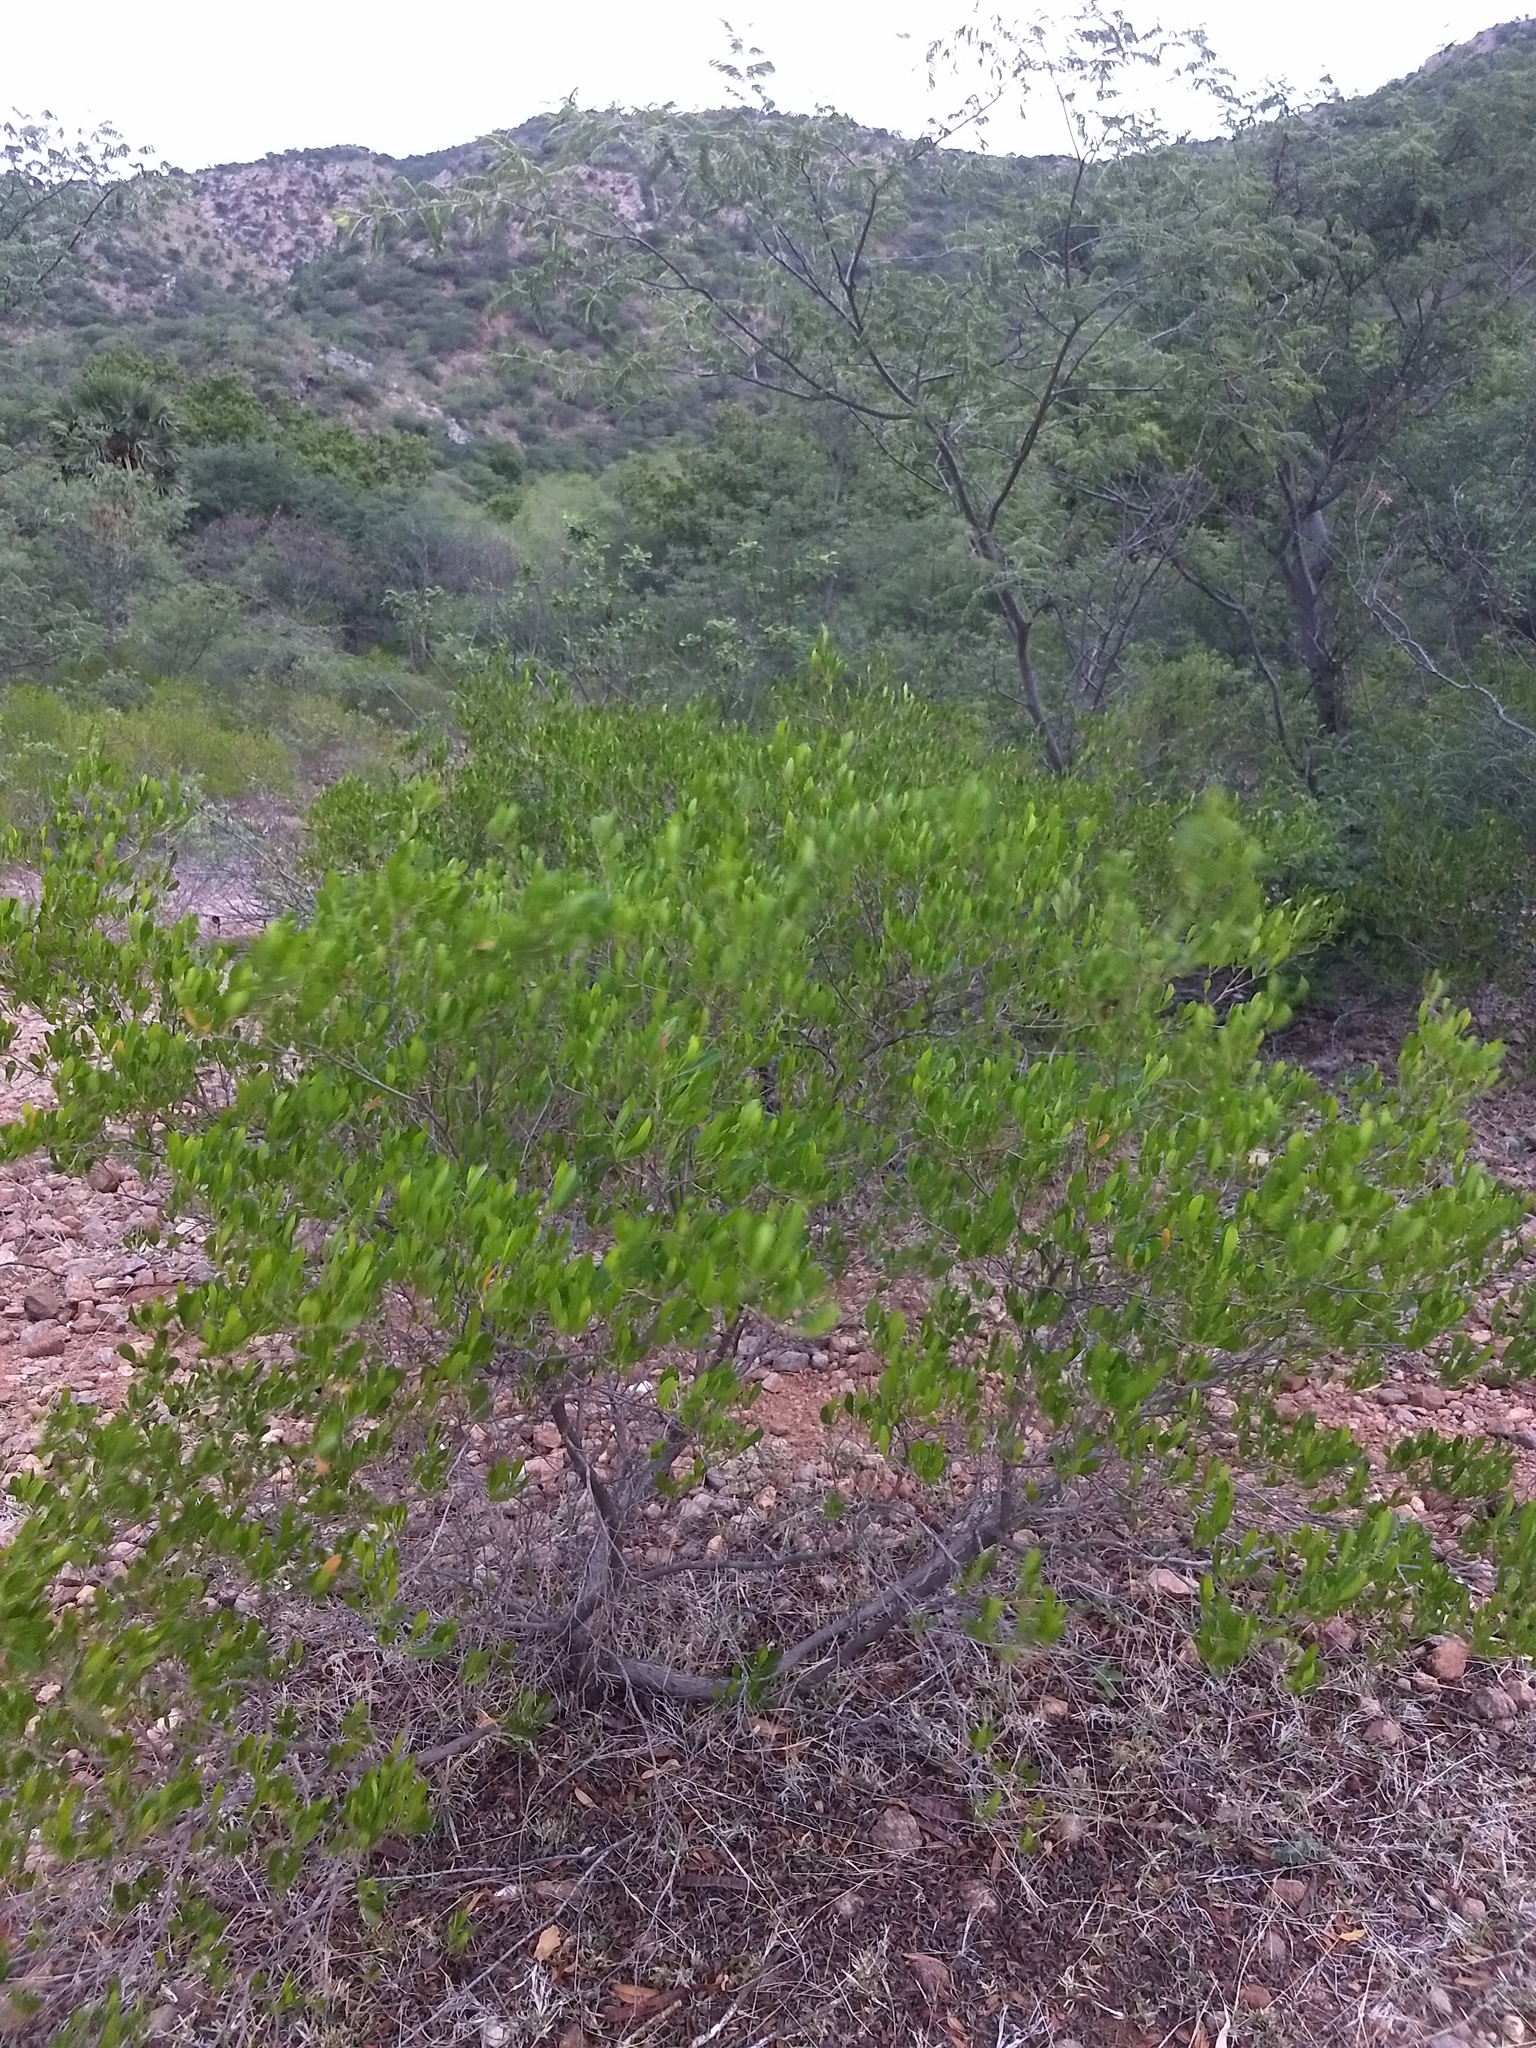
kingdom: Plantae
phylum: Tracheophyta
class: Magnoliopsida
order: Sapindales
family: Sapindaceae
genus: Dodonaea
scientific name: Dodonaea viscosa
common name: Hopbush
